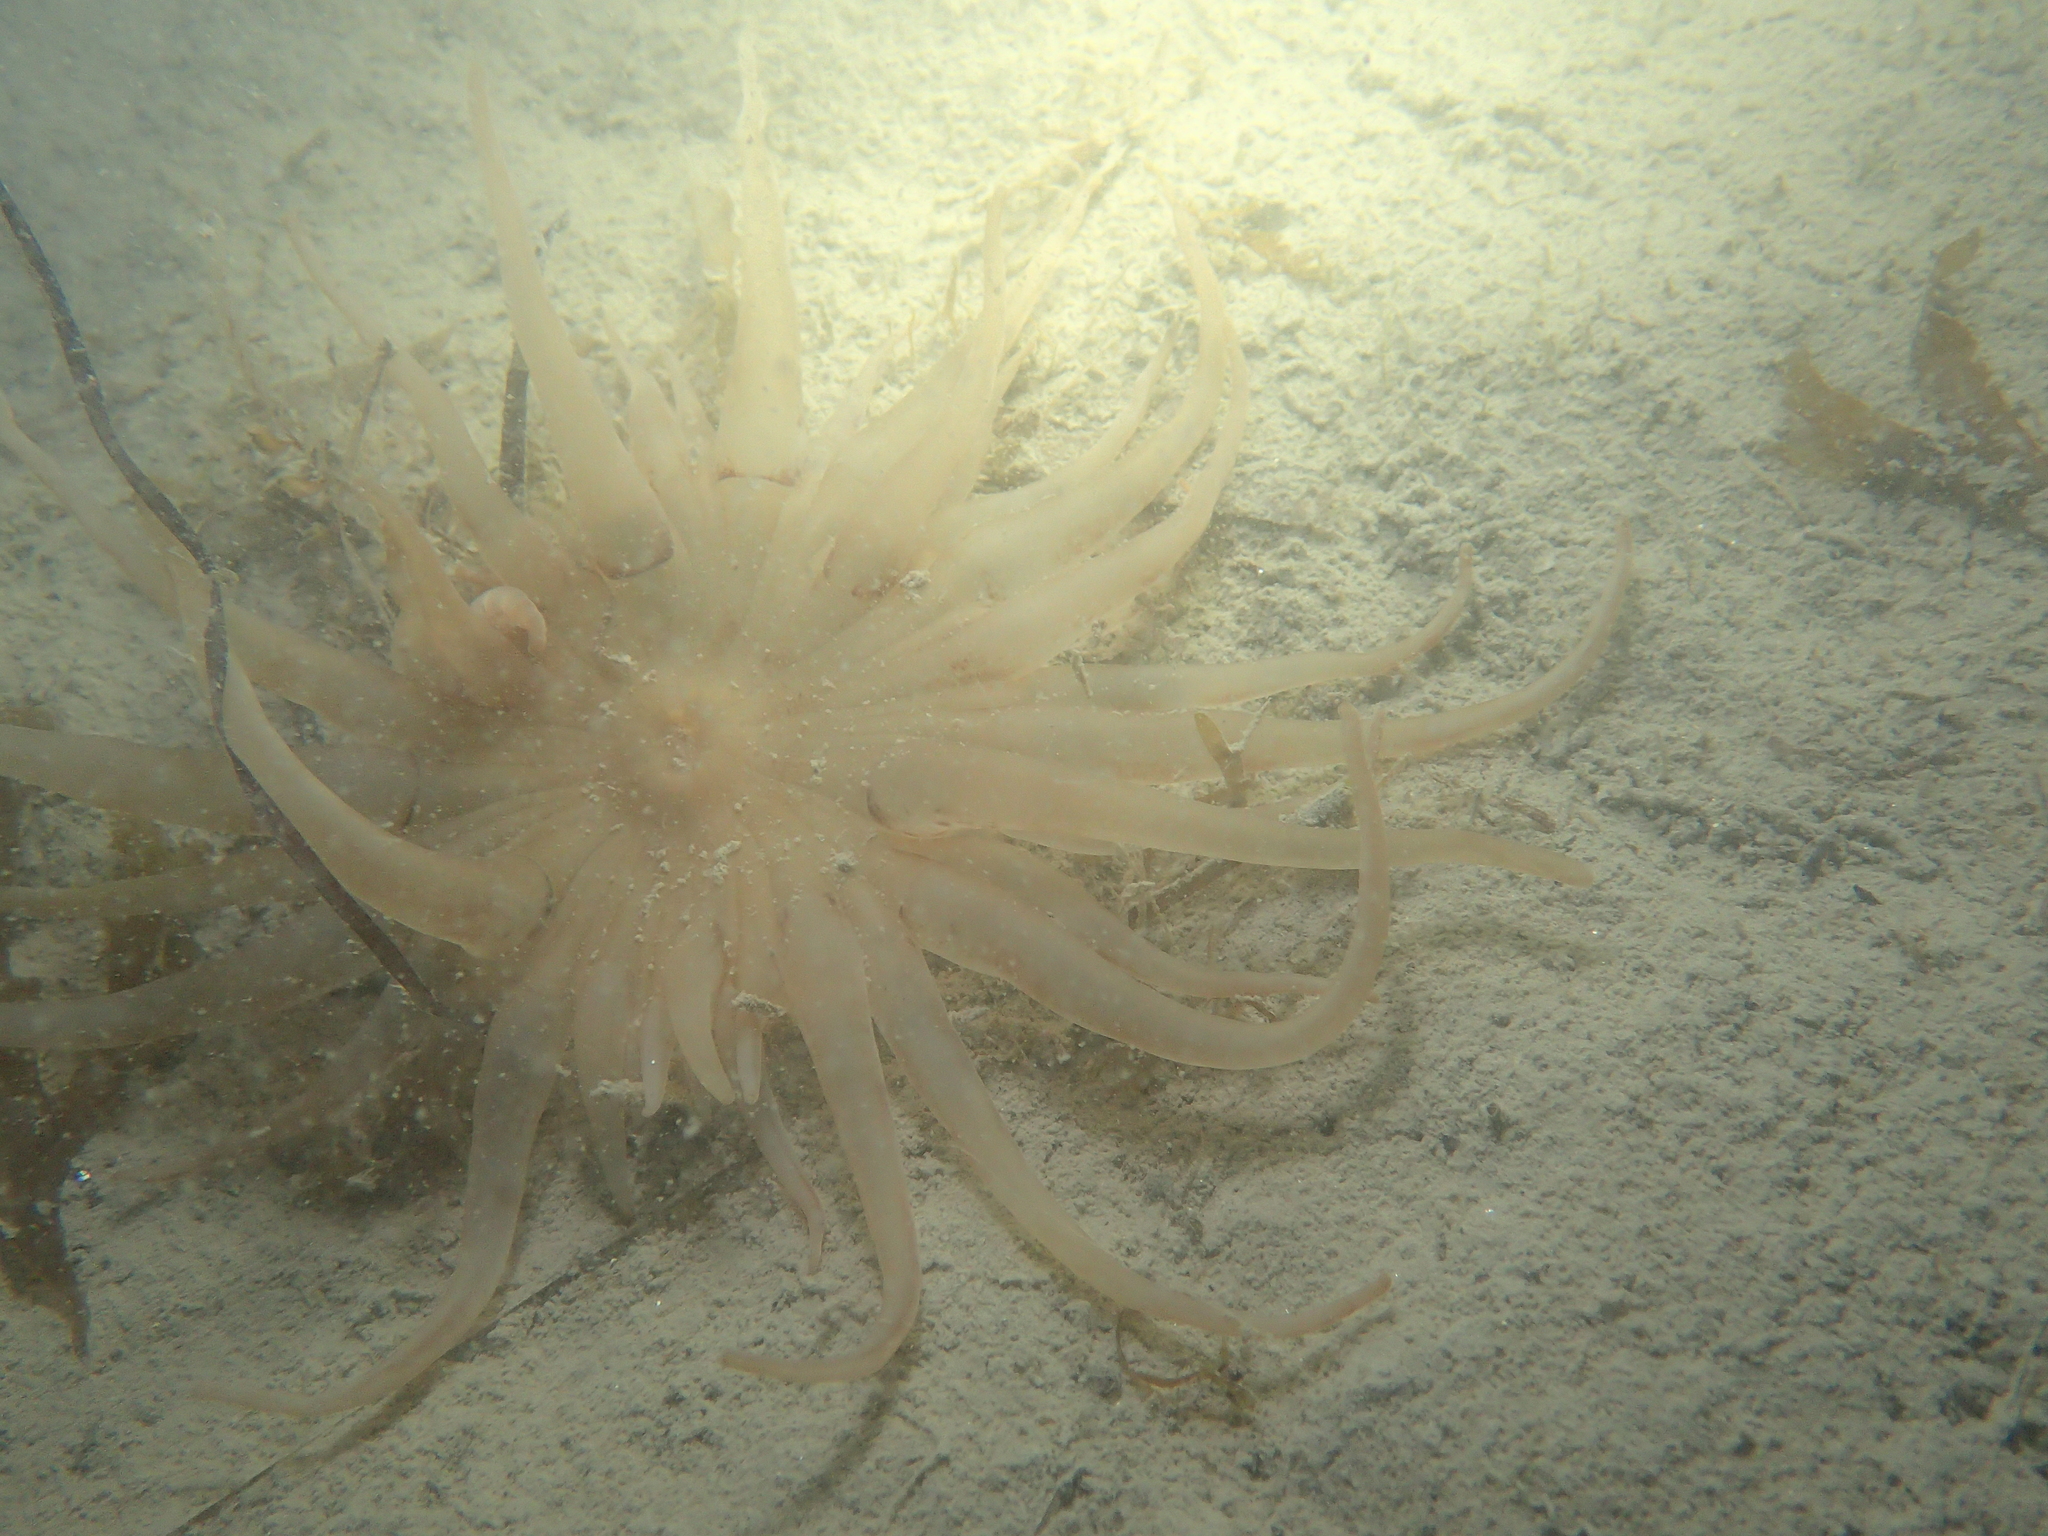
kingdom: Animalia
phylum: Cnidaria
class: Anthozoa
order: Actiniaria
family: Andresiidae
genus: Andresia
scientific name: Andresia partenopea
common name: Burrowing anemone
